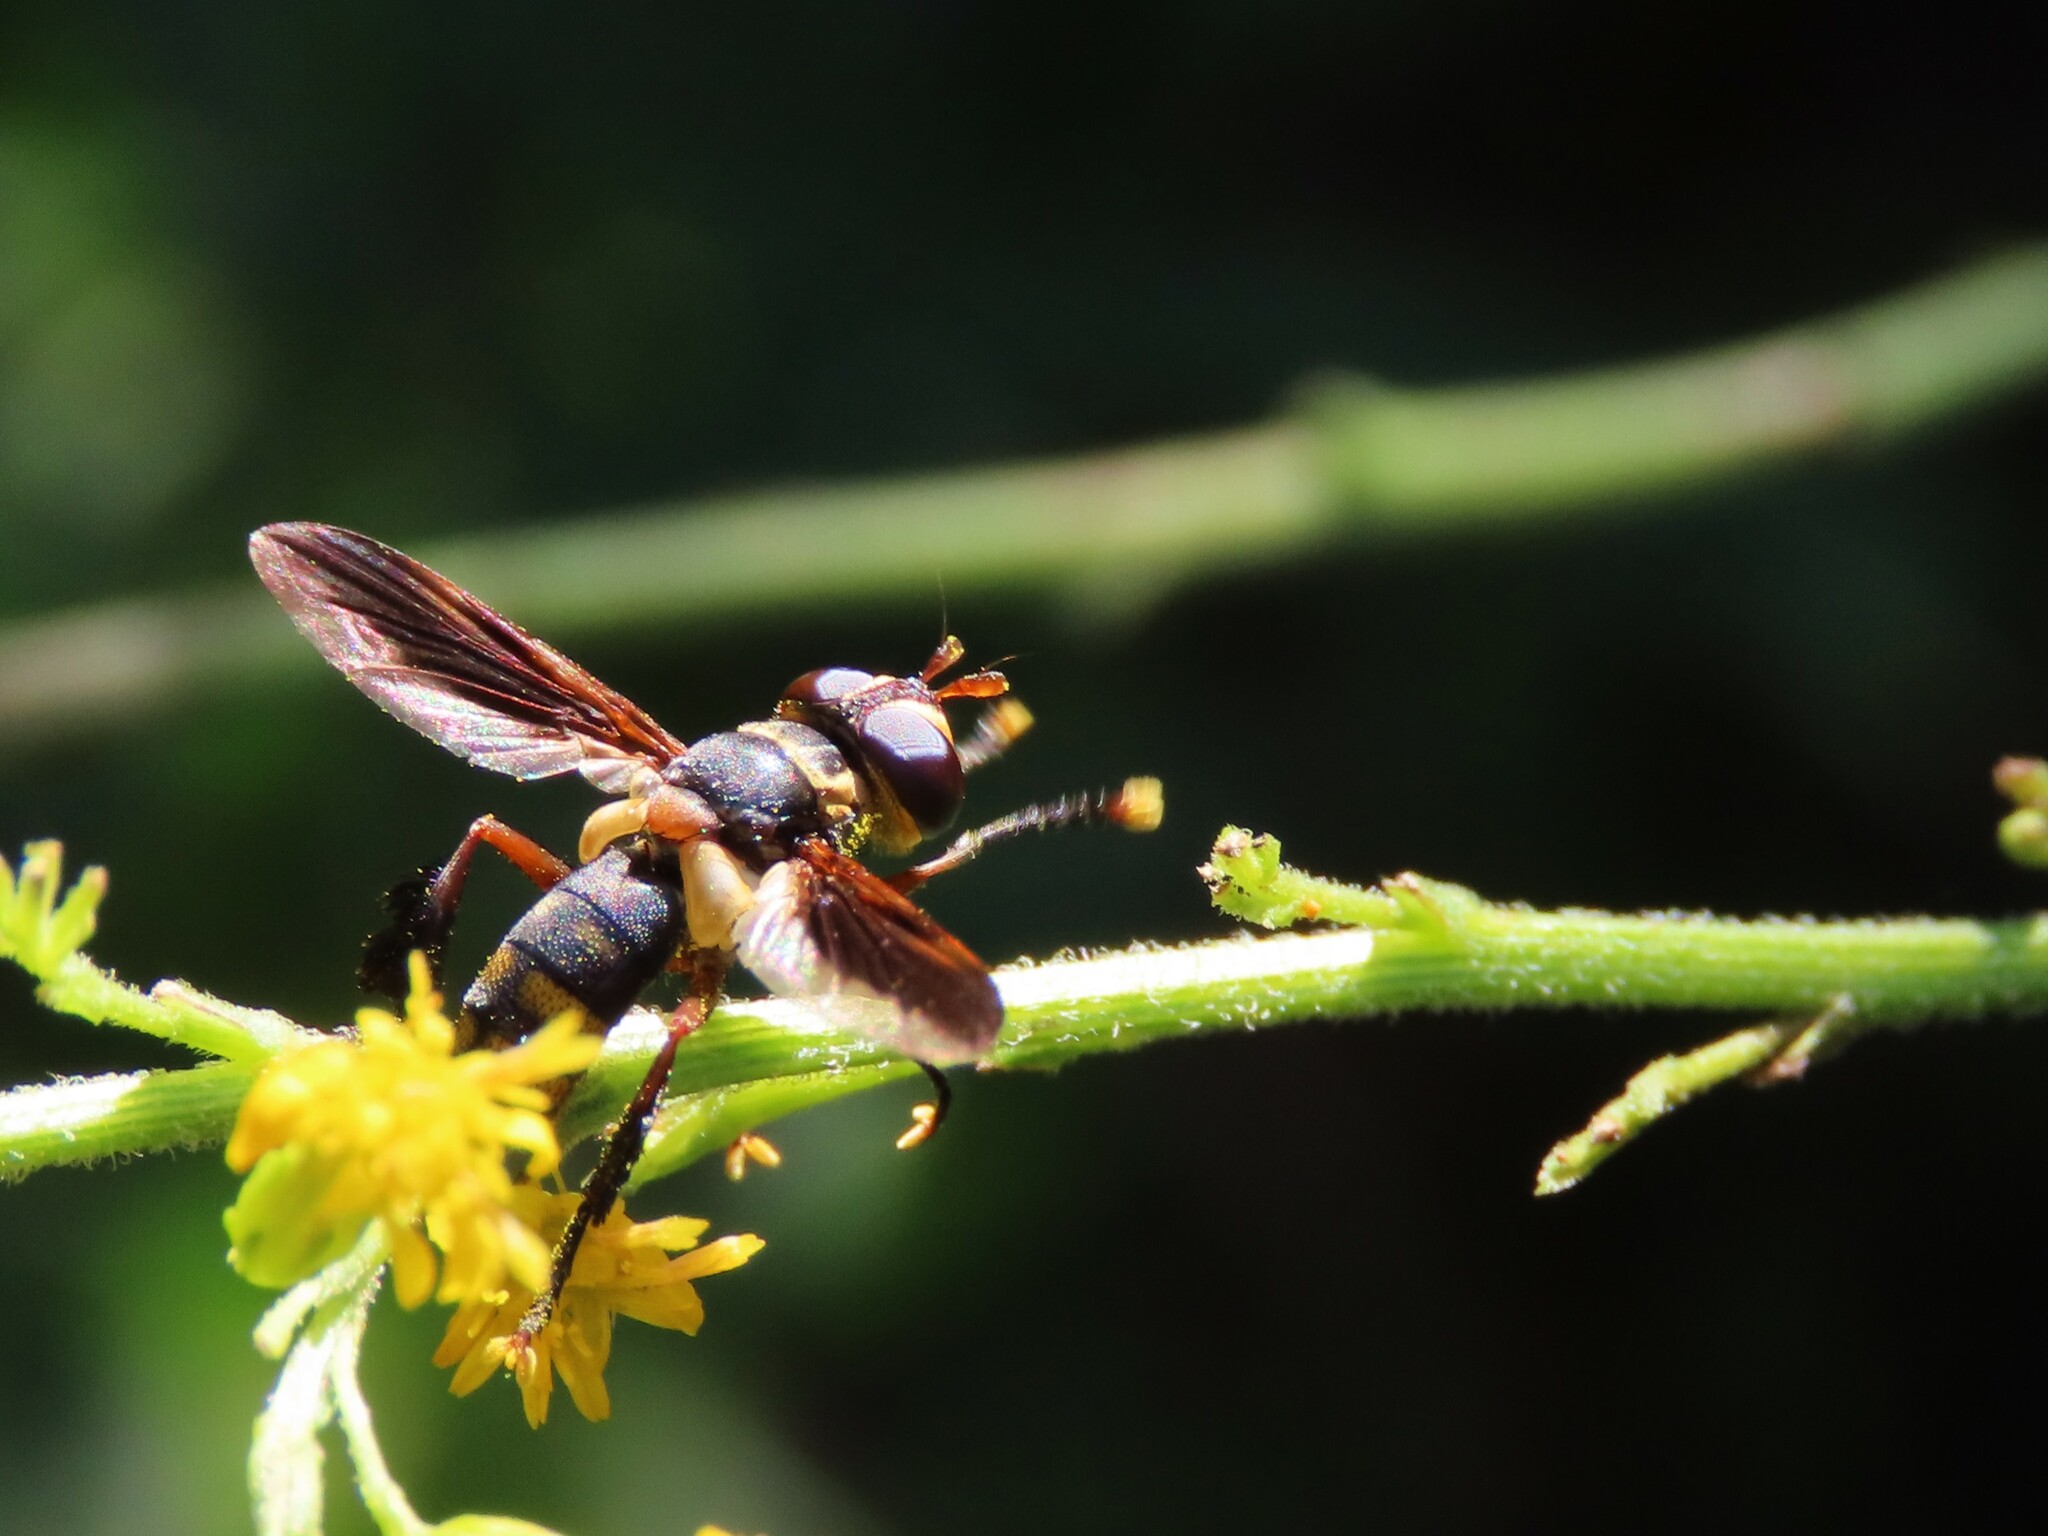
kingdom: Animalia
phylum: Arthropoda
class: Insecta
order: Diptera
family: Tachinidae
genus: Trichopoda
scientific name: Trichopoda plumipes
